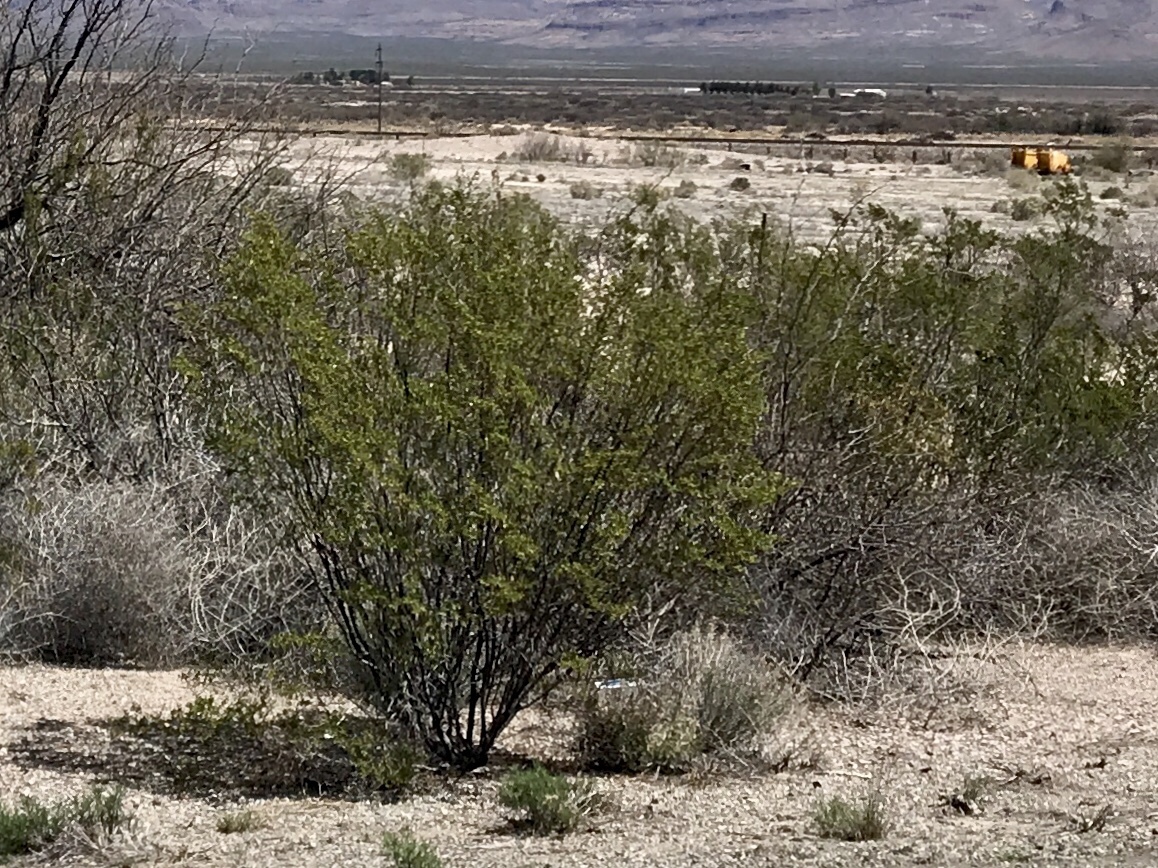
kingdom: Plantae
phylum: Tracheophyta
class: Magnoliopsida
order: Zygophyllales
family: Zygophyllaceae
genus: Larrea
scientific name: Larrea tridentata
